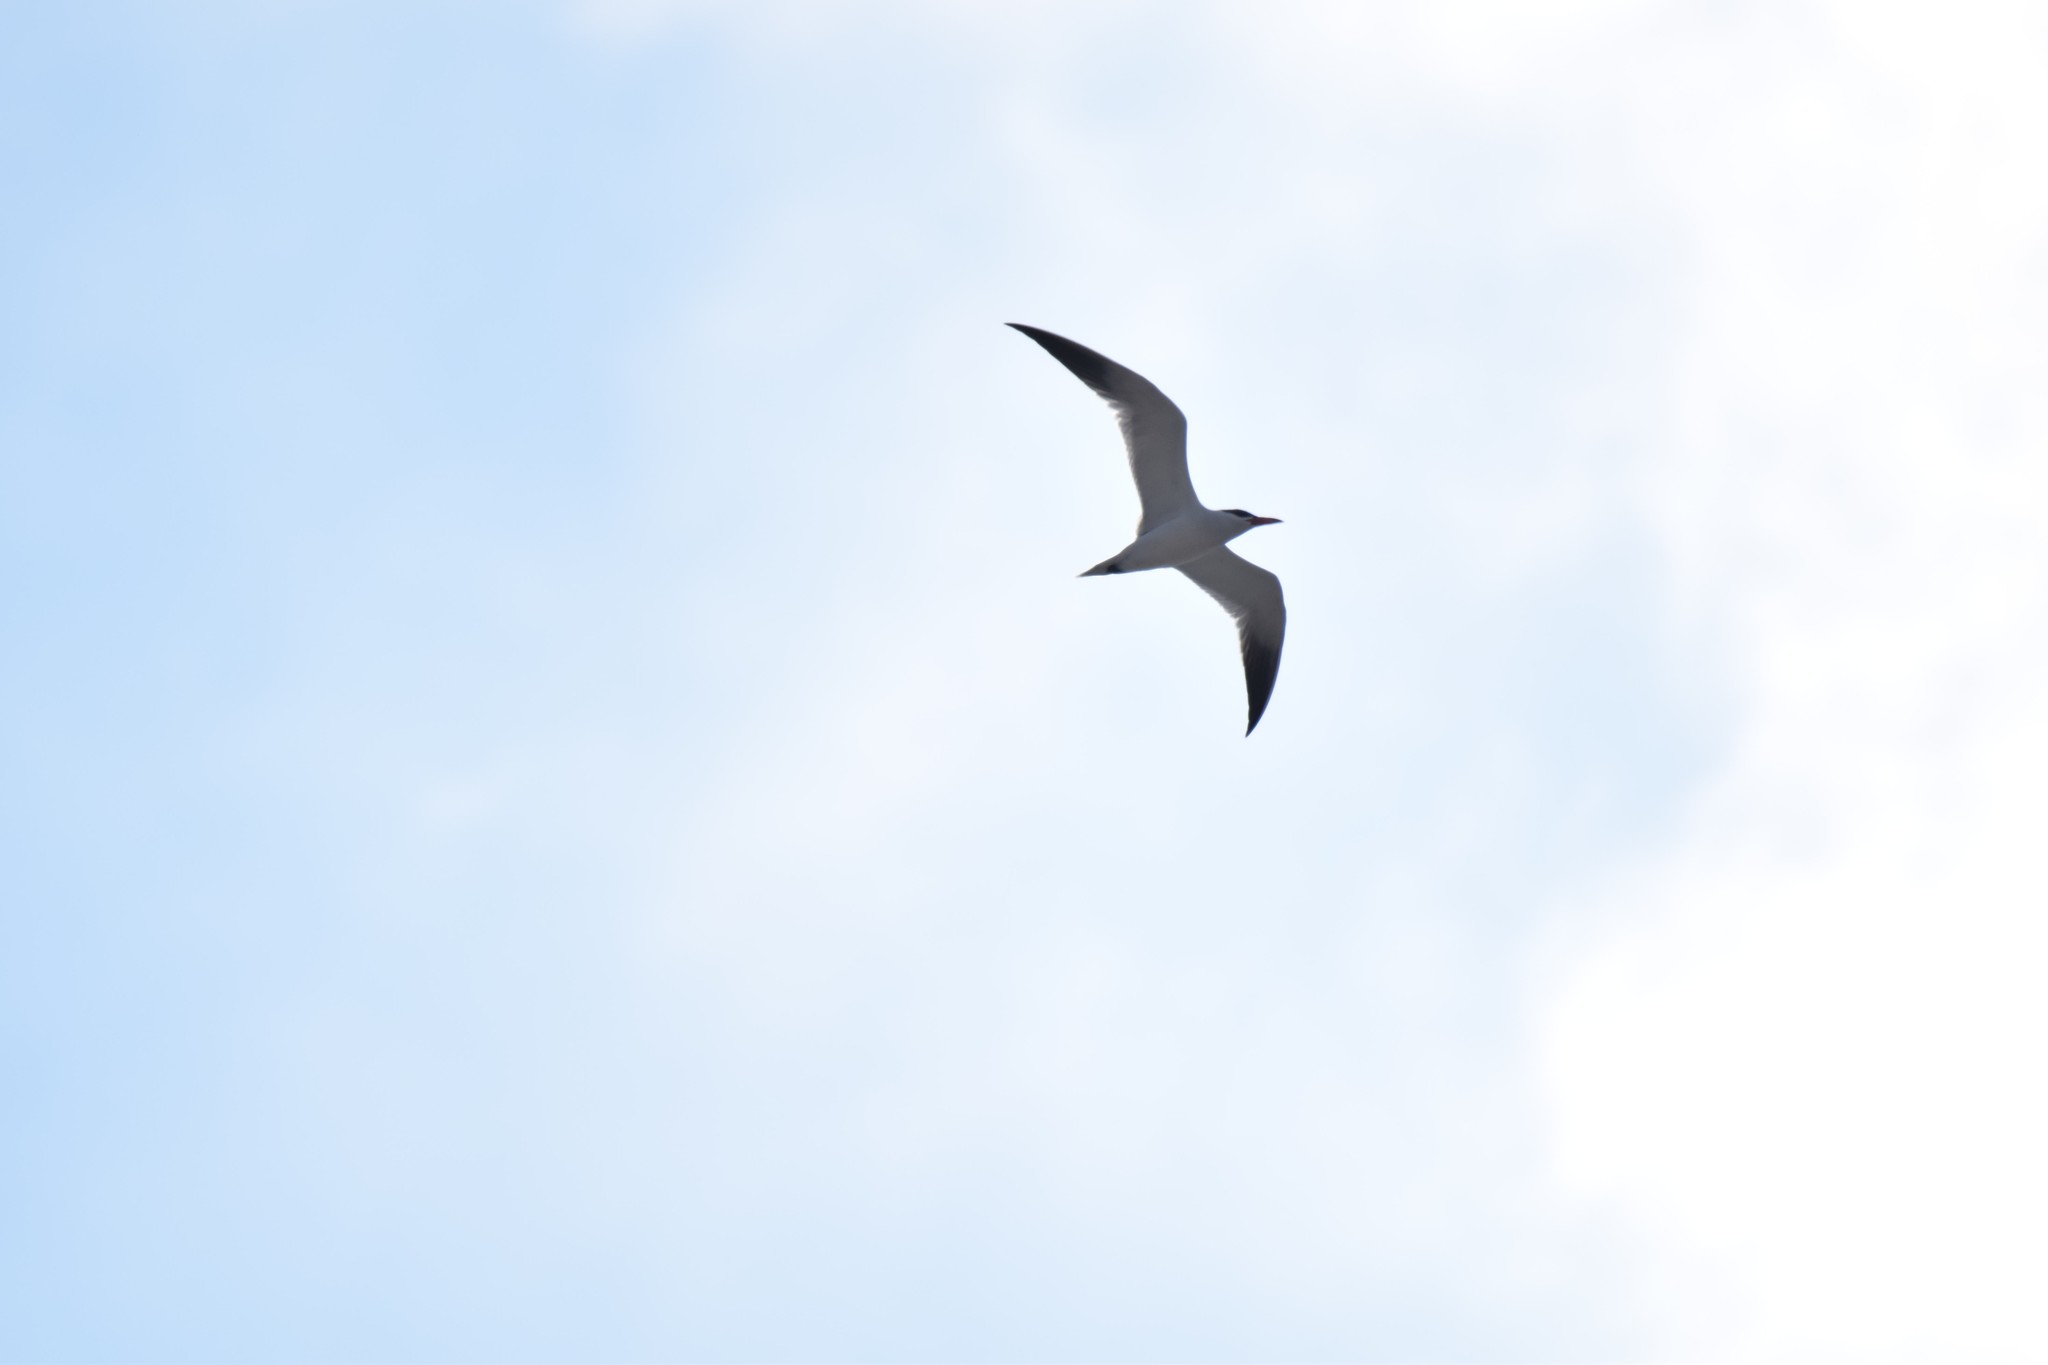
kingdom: Animalia
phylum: Chordata
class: Aves
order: Charadriiformes
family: Laridae
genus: Hydroprogne
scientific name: Hydroprogne caspia
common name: Caspian tern
